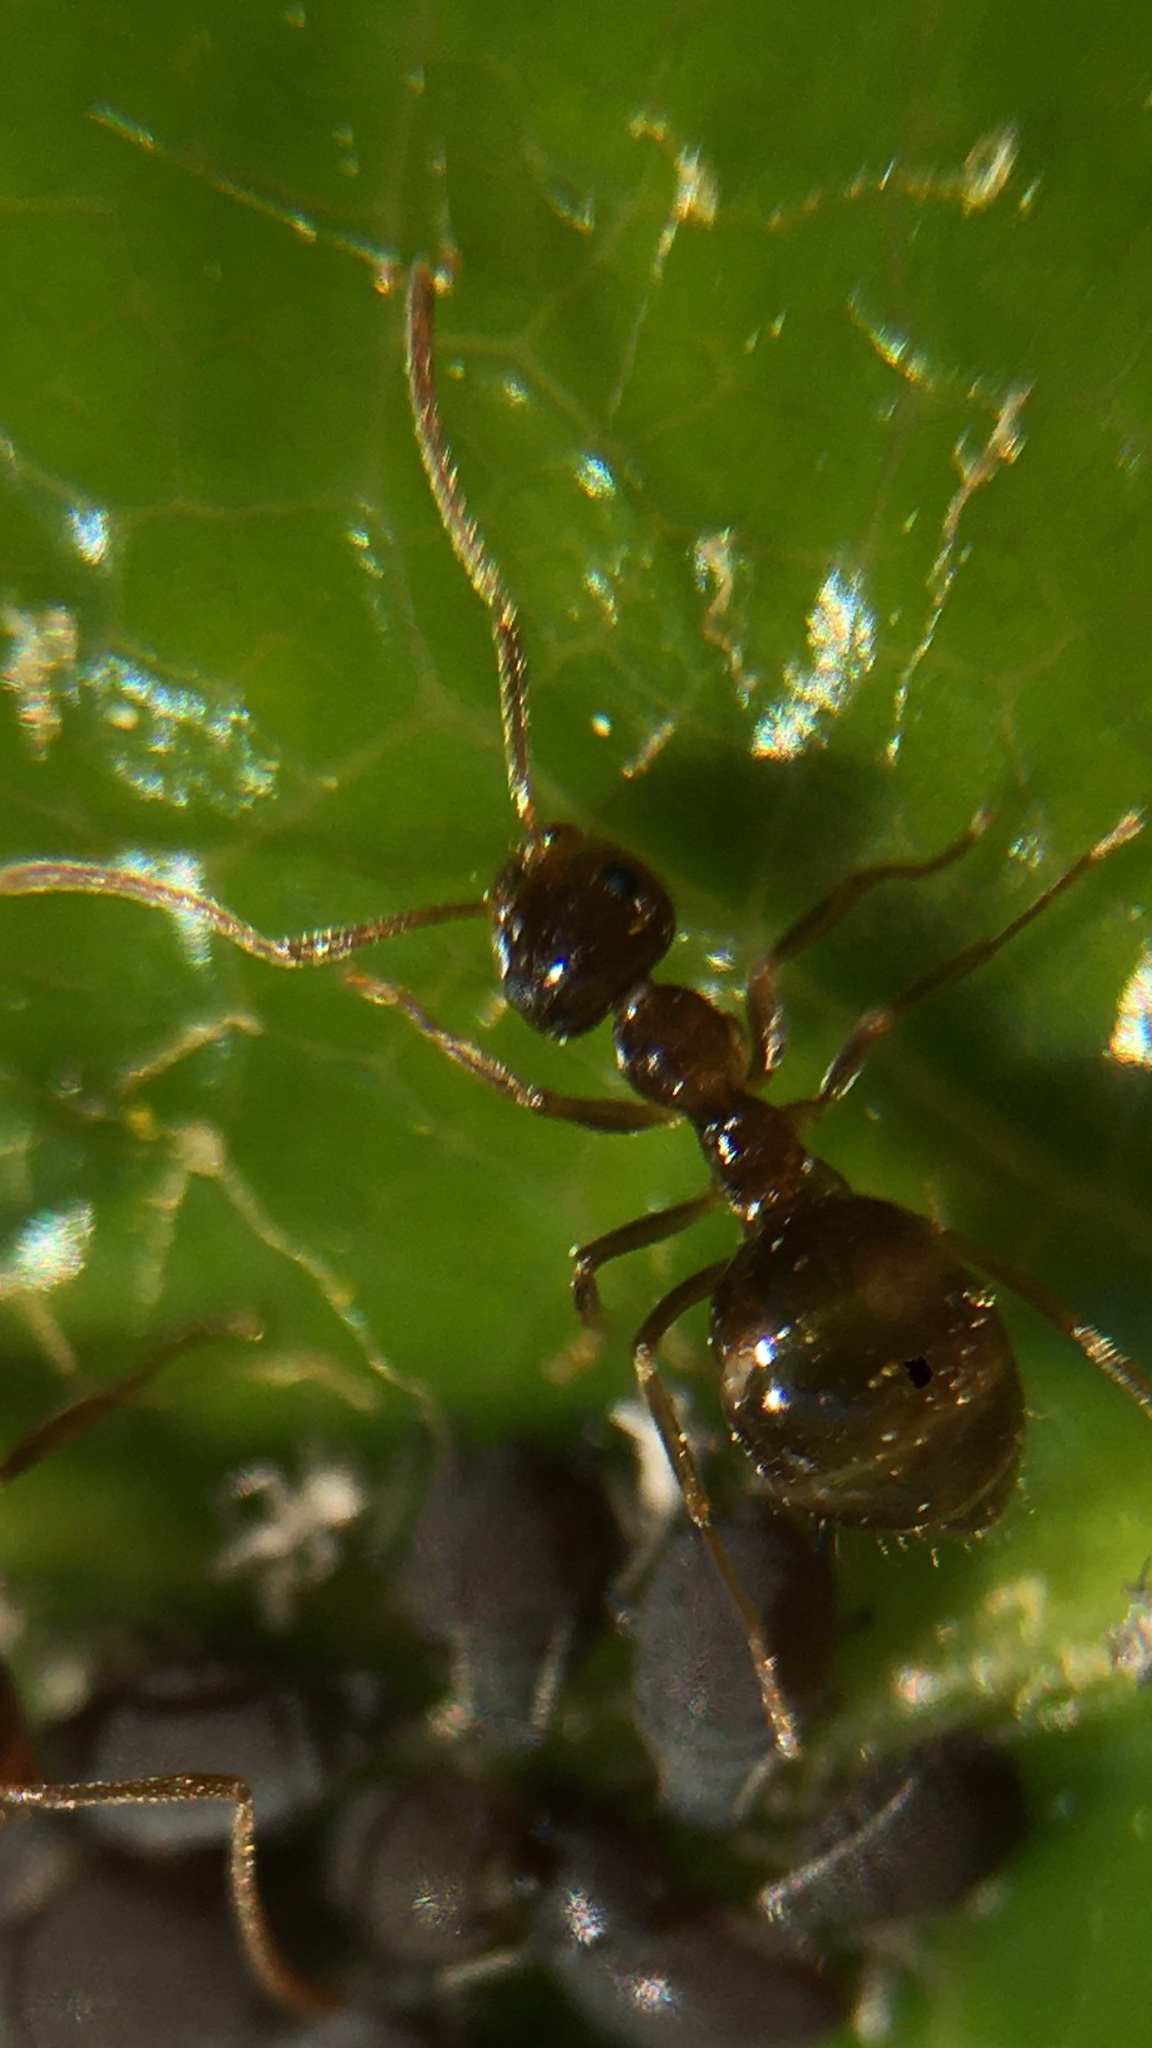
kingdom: Animalia
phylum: Arthropoda
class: Insecta
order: Hymenoptera
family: Formicidae
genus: Prenolepis
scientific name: Prenolepis imparis
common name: Small honey ant
